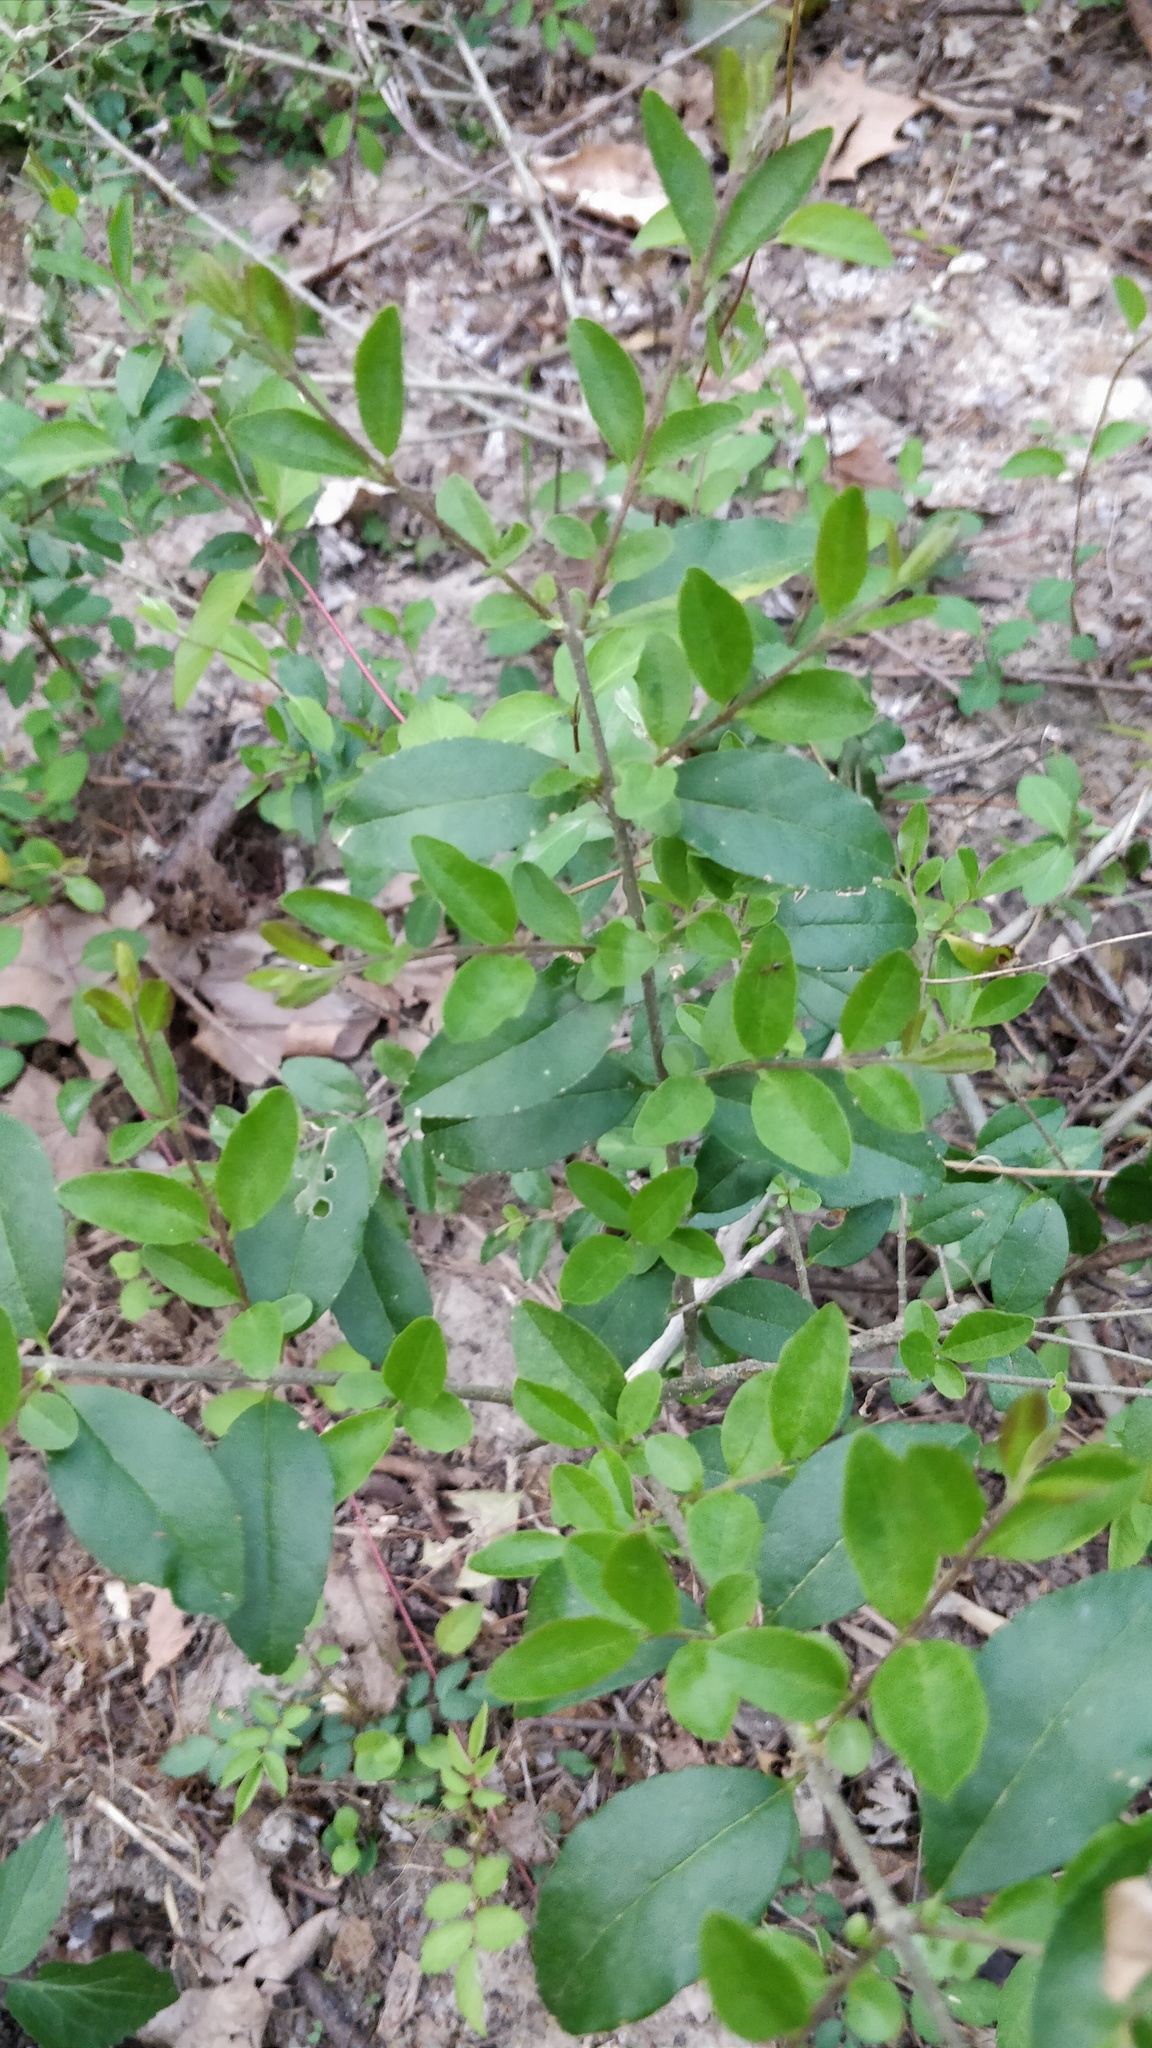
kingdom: Plantae
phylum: Tracheophyta
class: Magnoliopsida
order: Lamiales
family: Oleaceae
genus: Ligustrum
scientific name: Ligustrum sinense
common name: Chinese privet
